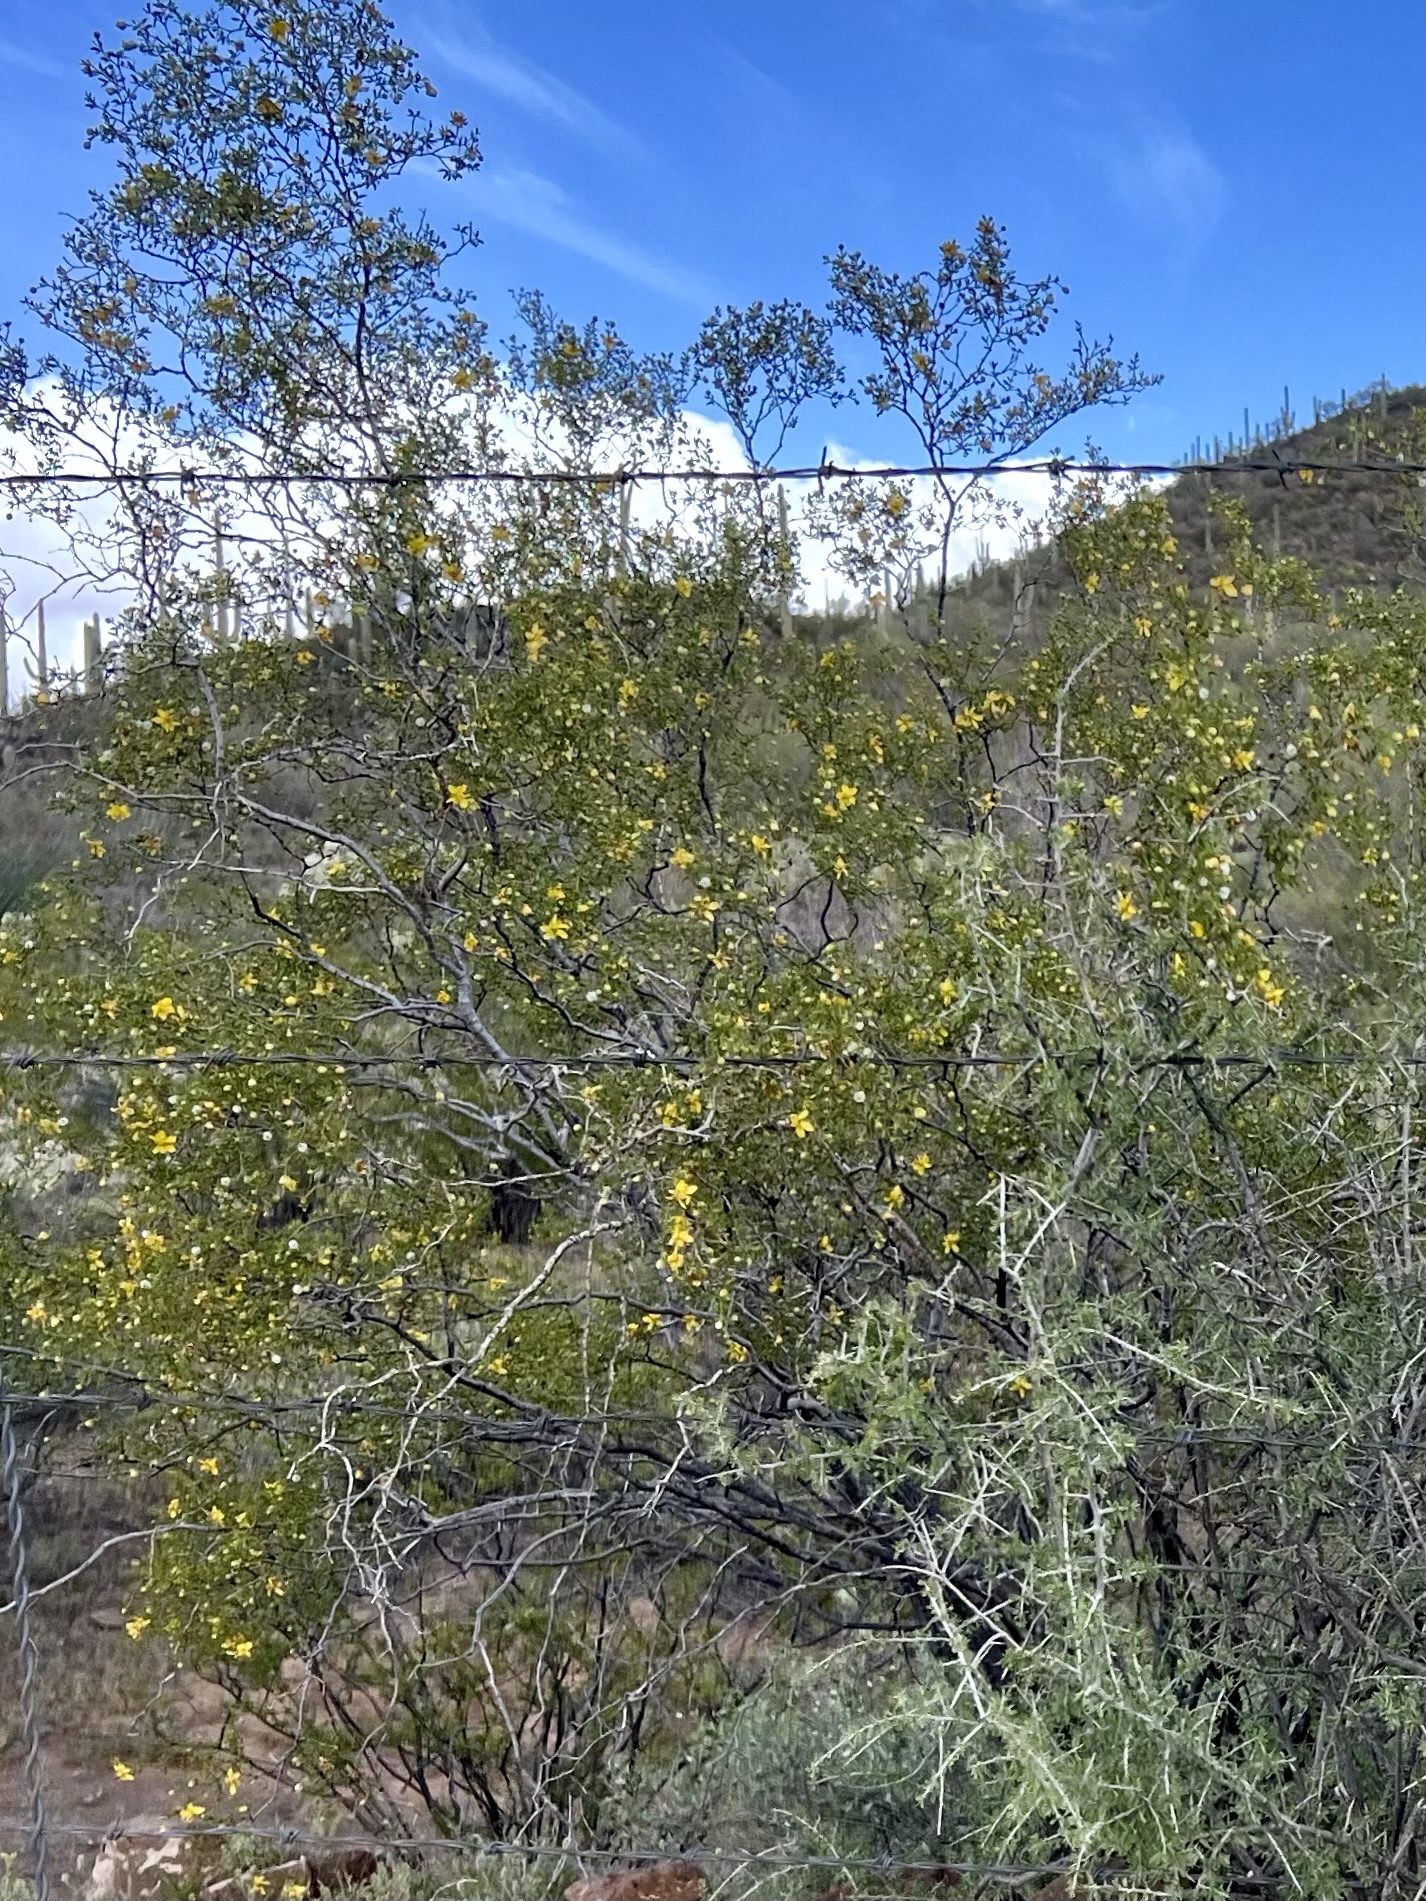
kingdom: Plantae
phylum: Tracheophyta
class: Magnoliopsida
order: Zygophyllales
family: Zygophyllaceae
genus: Larrea
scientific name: Larrea tridentata
